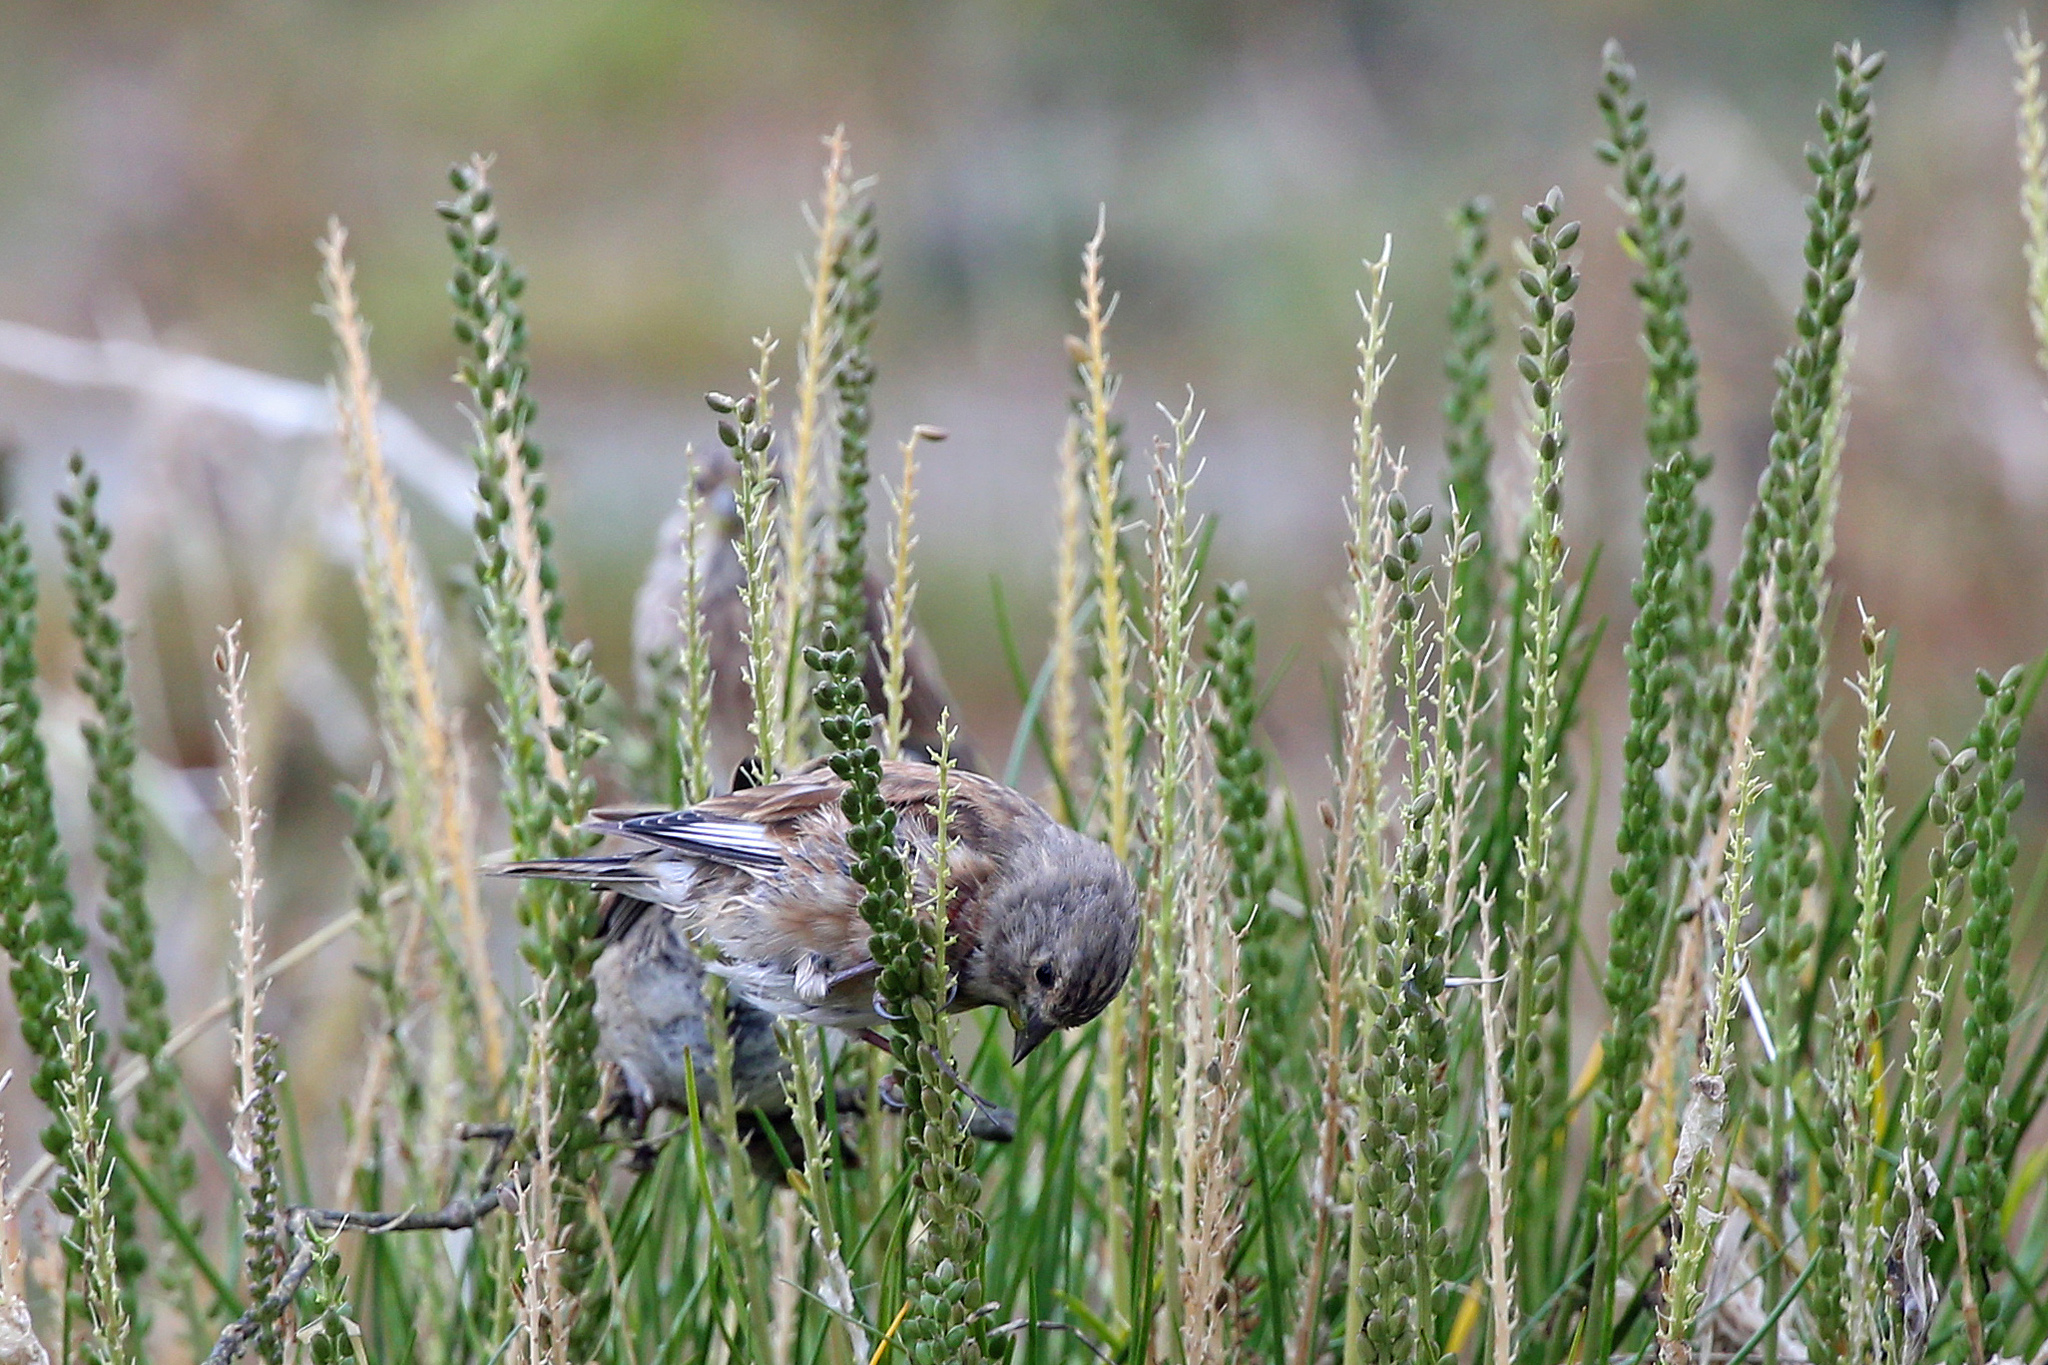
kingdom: Animalia
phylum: Chordata
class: Aves
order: Passeriformes
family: Fringillidae
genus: Linaria
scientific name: Linaria cannabina
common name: Common linnet
